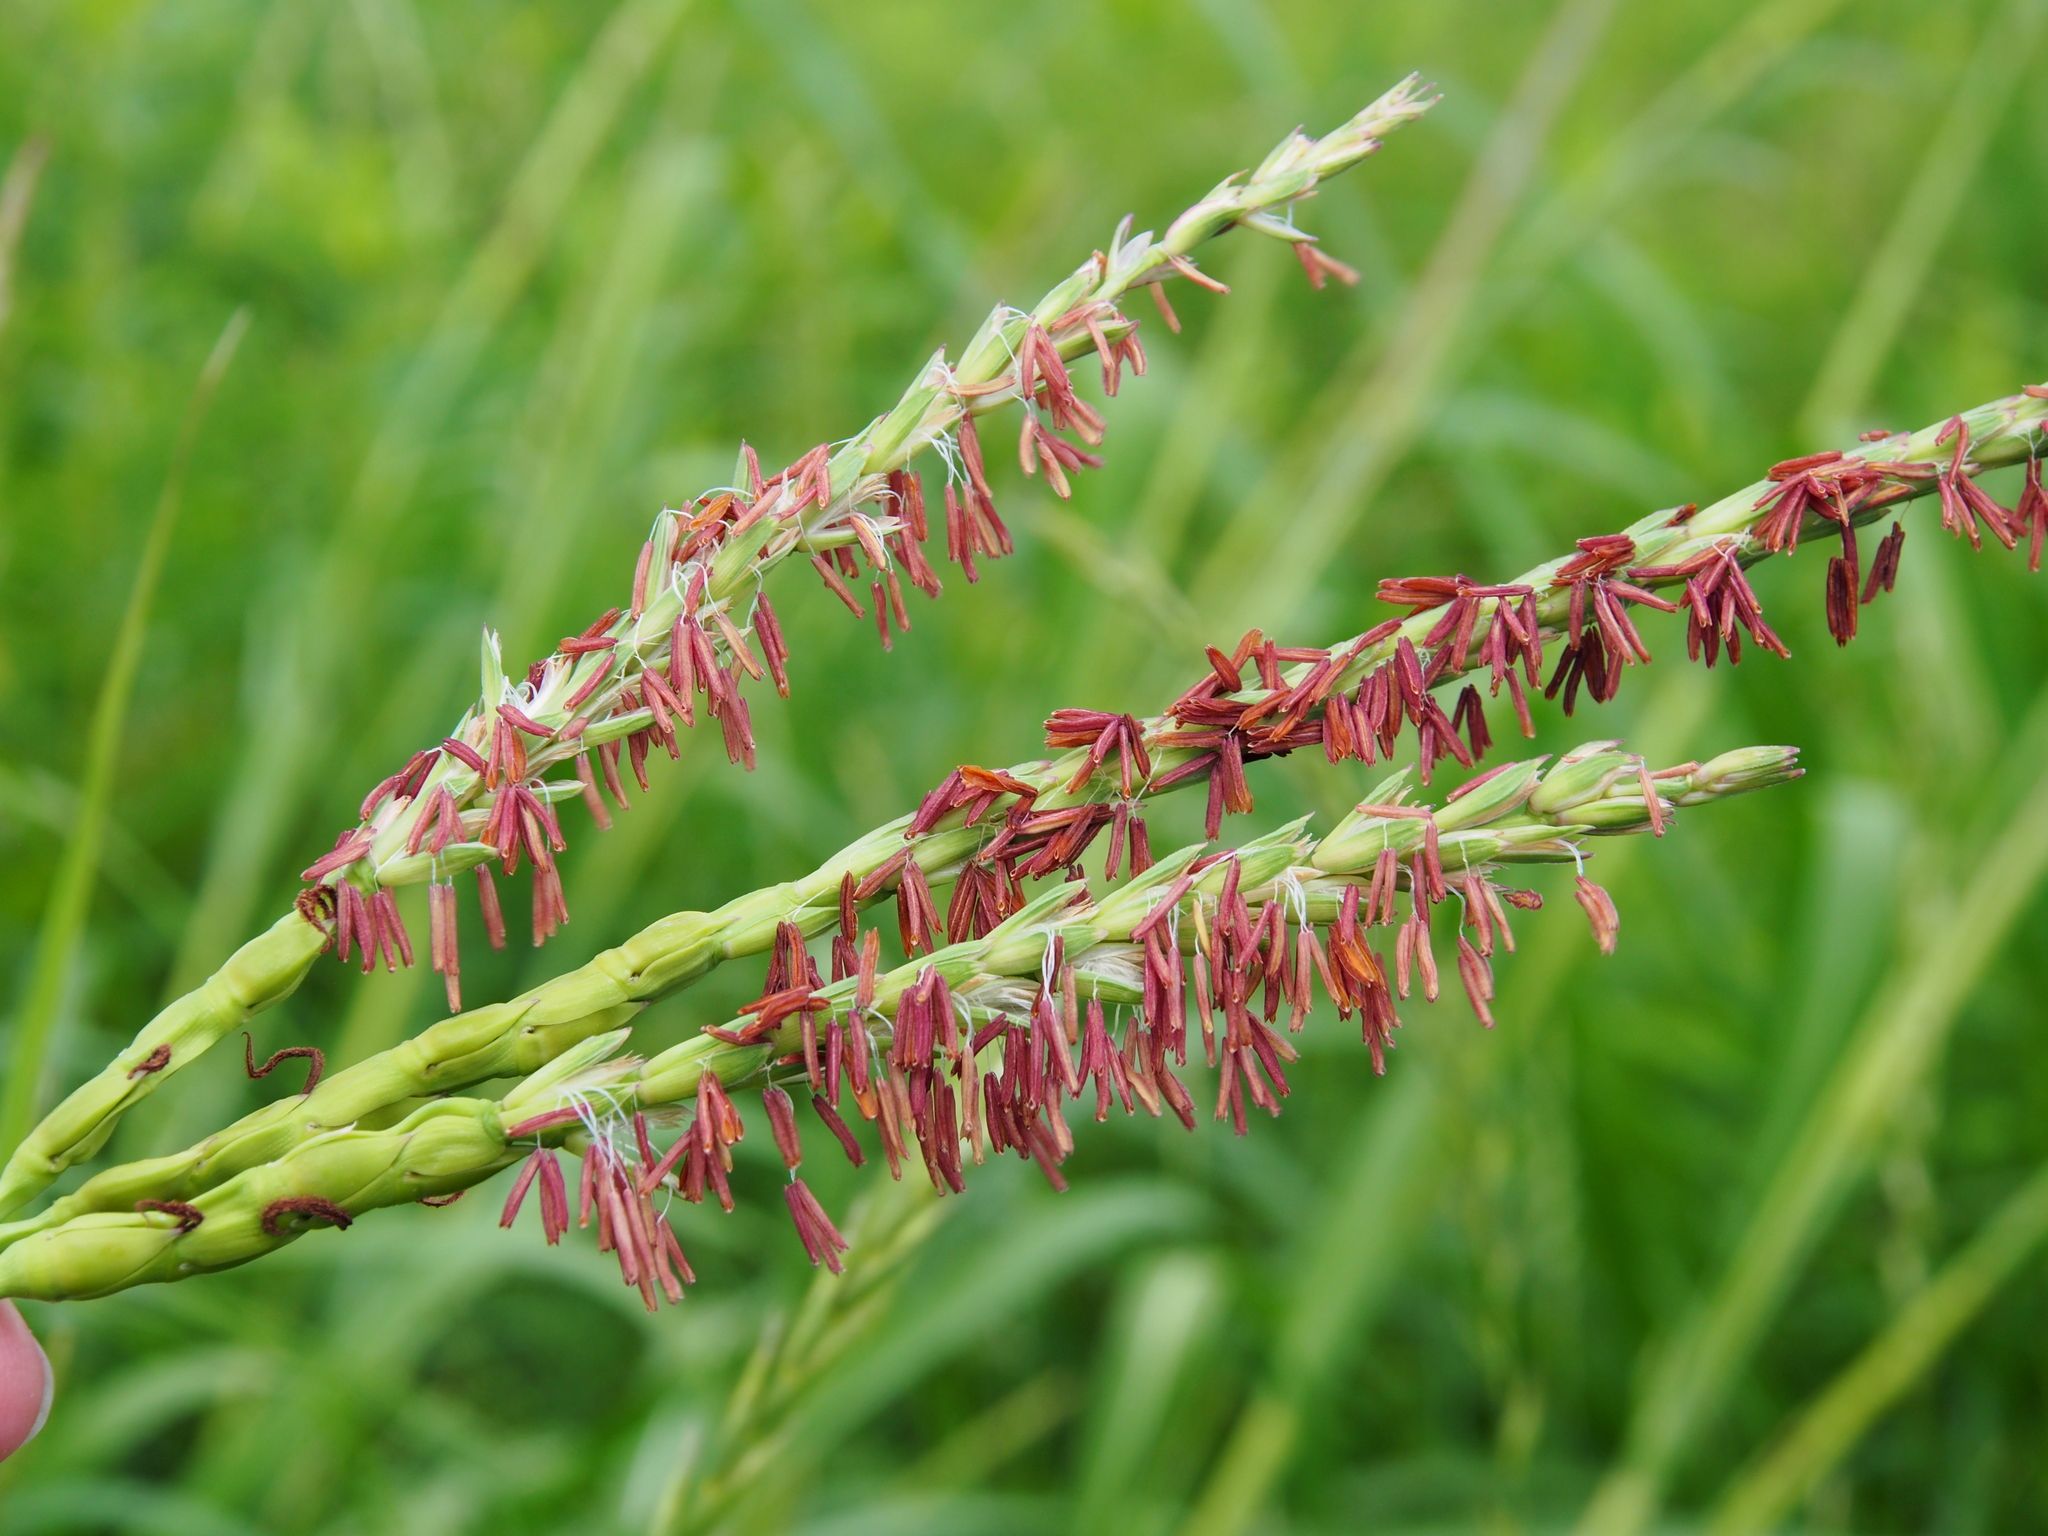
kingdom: Plantae
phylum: Tracheophyta
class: Liliopsida
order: Poales
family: Poaceae
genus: Tripsacum
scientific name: Tripsacum dactyloides
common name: Buffalo-grass
